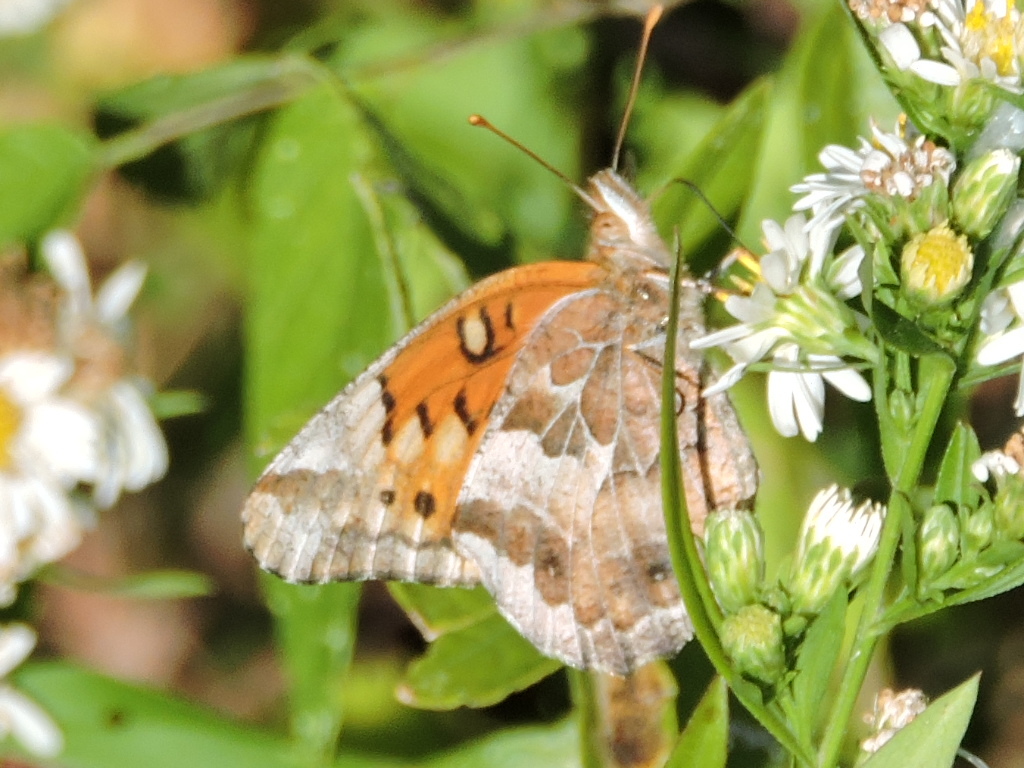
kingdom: Animalia
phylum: Arthropoda
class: Insecta
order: Lepidoptera
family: Nymphalidae
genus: Euptoieta
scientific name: Euptoieta claudia
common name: Variegated fritillary
